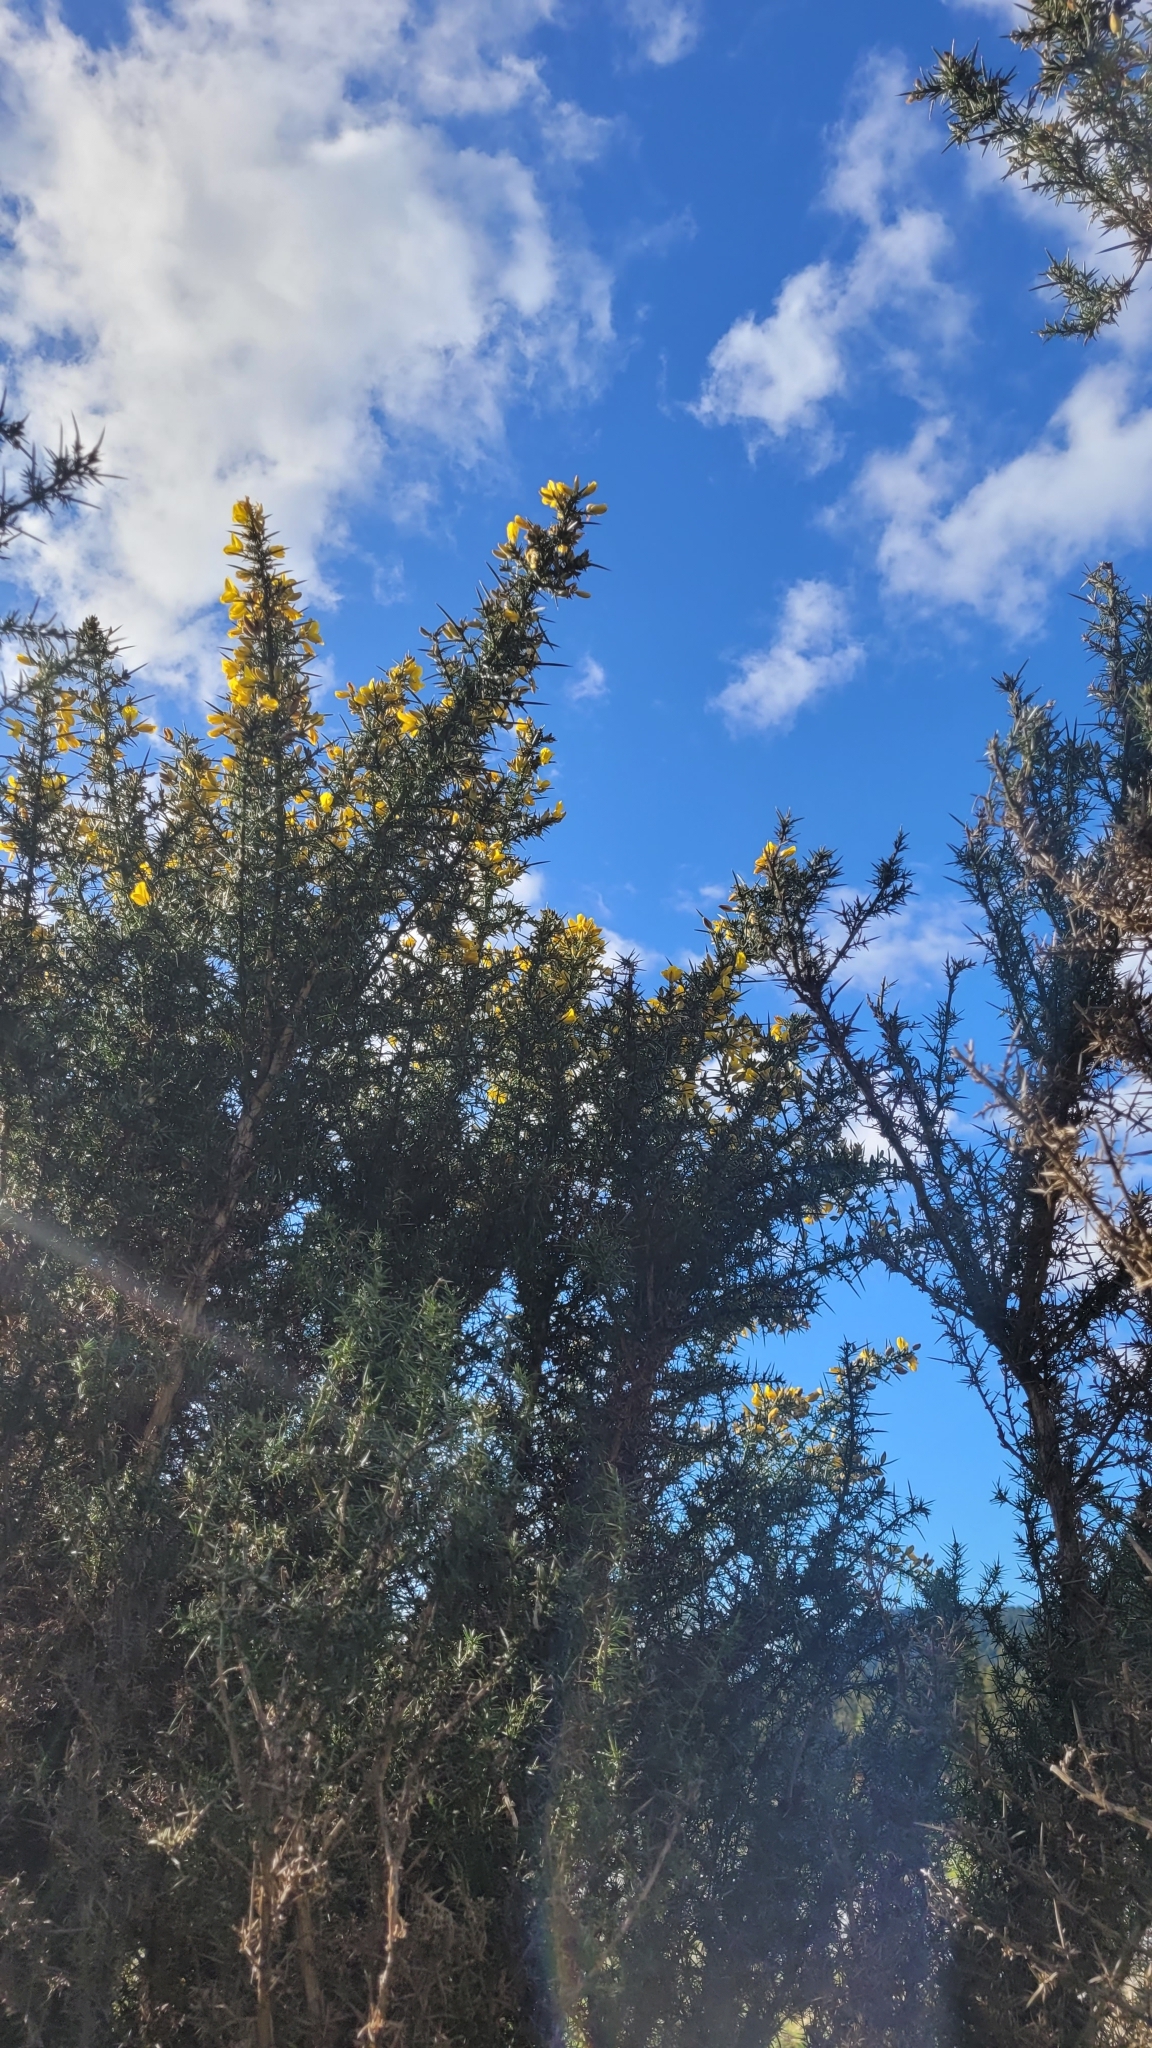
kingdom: Plantae
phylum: Tracheophyta
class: Magnoliopsida
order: Fabales
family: Fabaceae
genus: Ulex
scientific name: Ulex europaeus
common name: Common gorse
